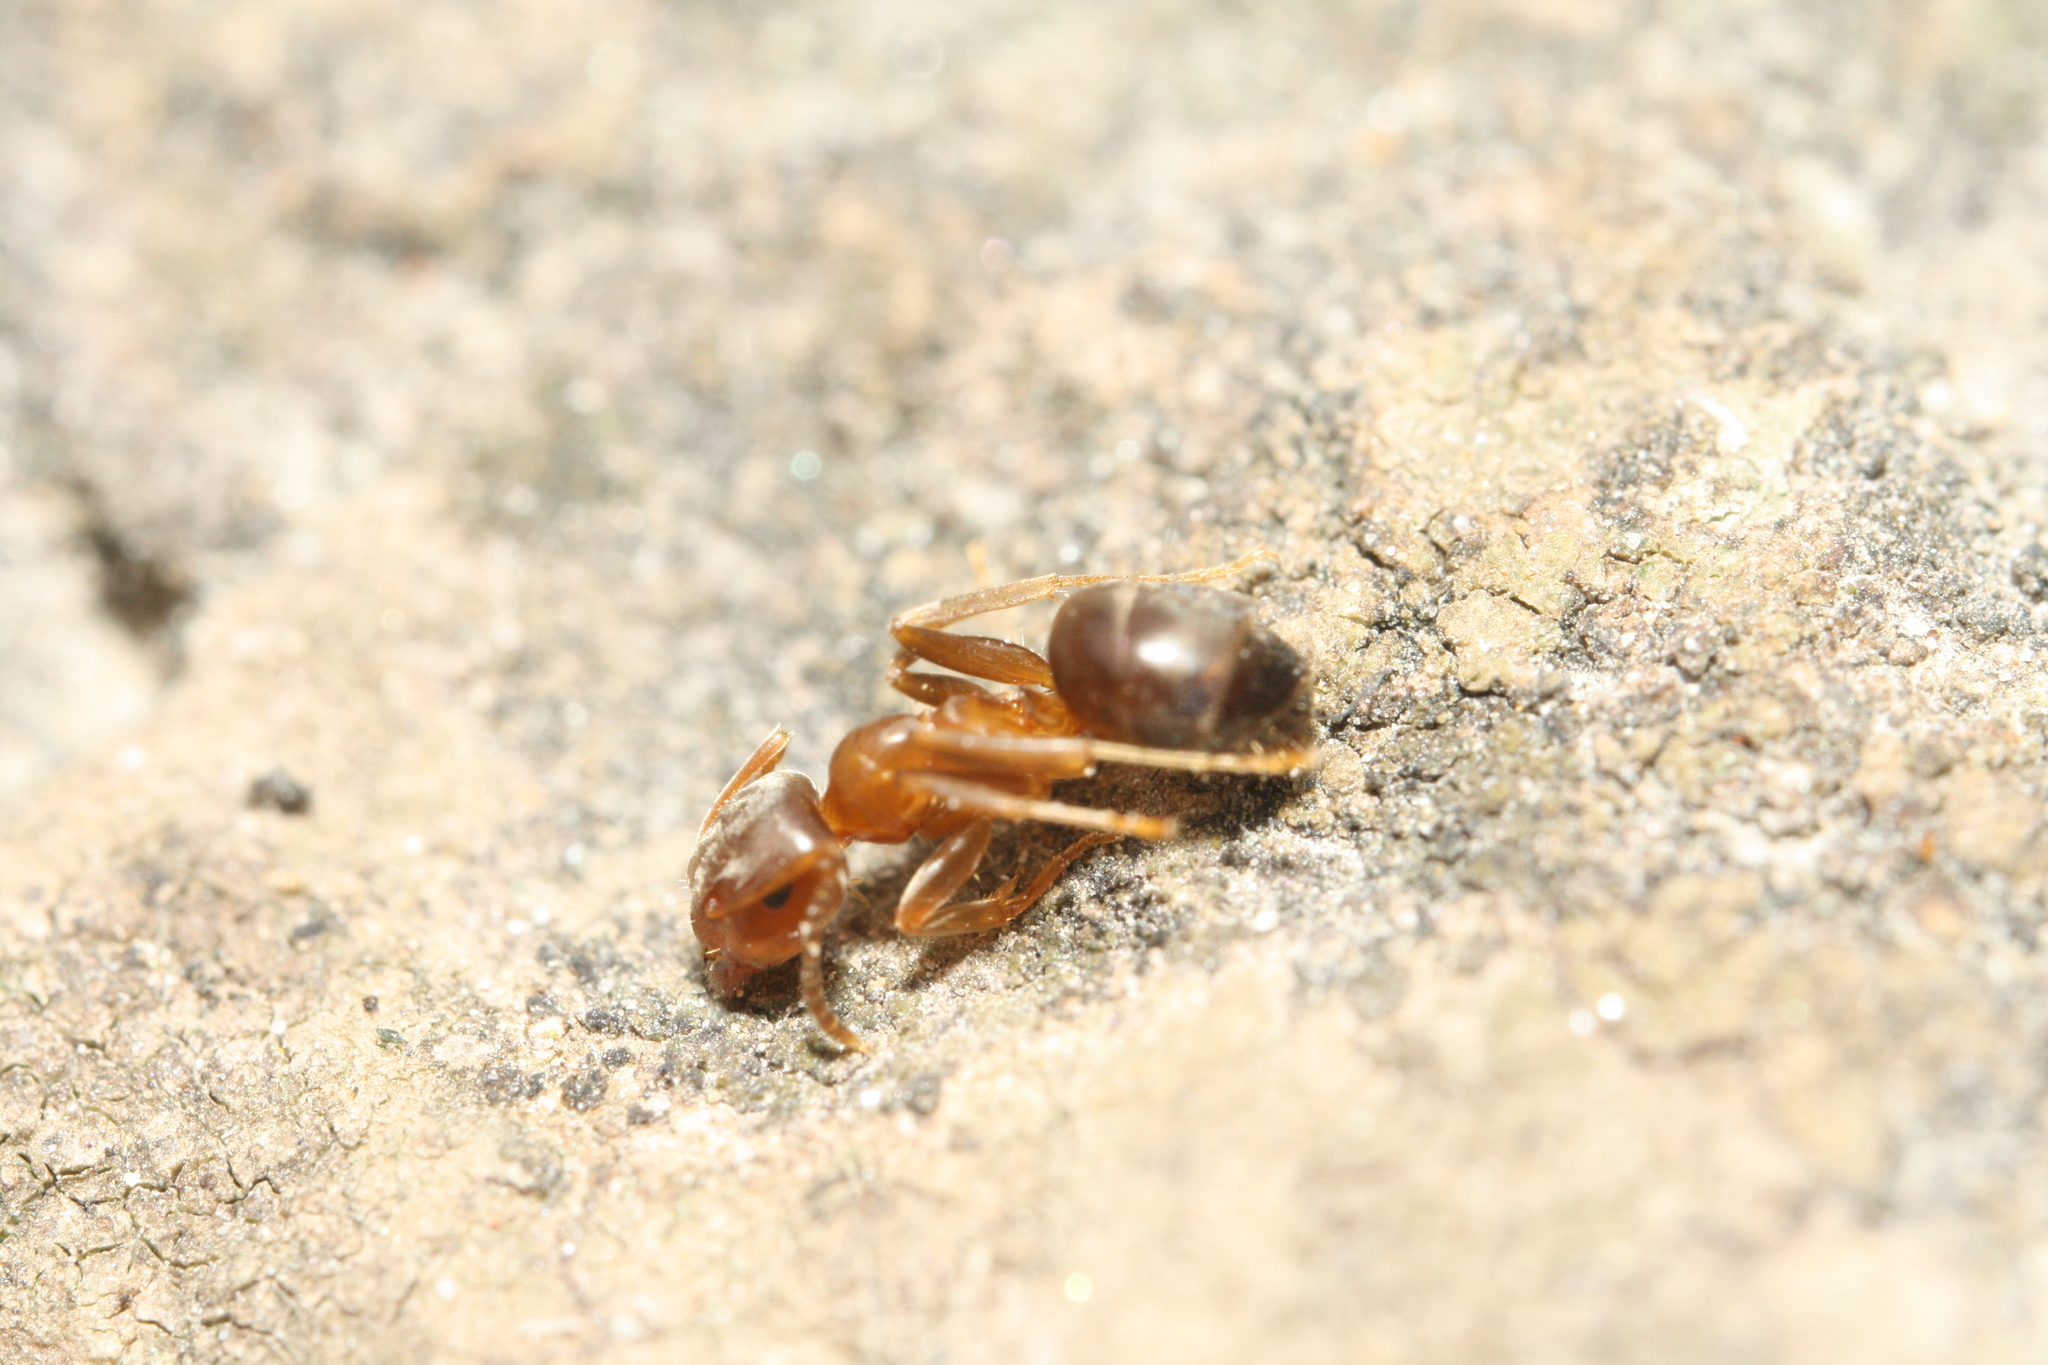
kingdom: Animalia
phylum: Arthropoda
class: Insecta
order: Hymenoptera
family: Formicidae
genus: Lasius
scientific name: Lasius brunneus
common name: Brown ant
